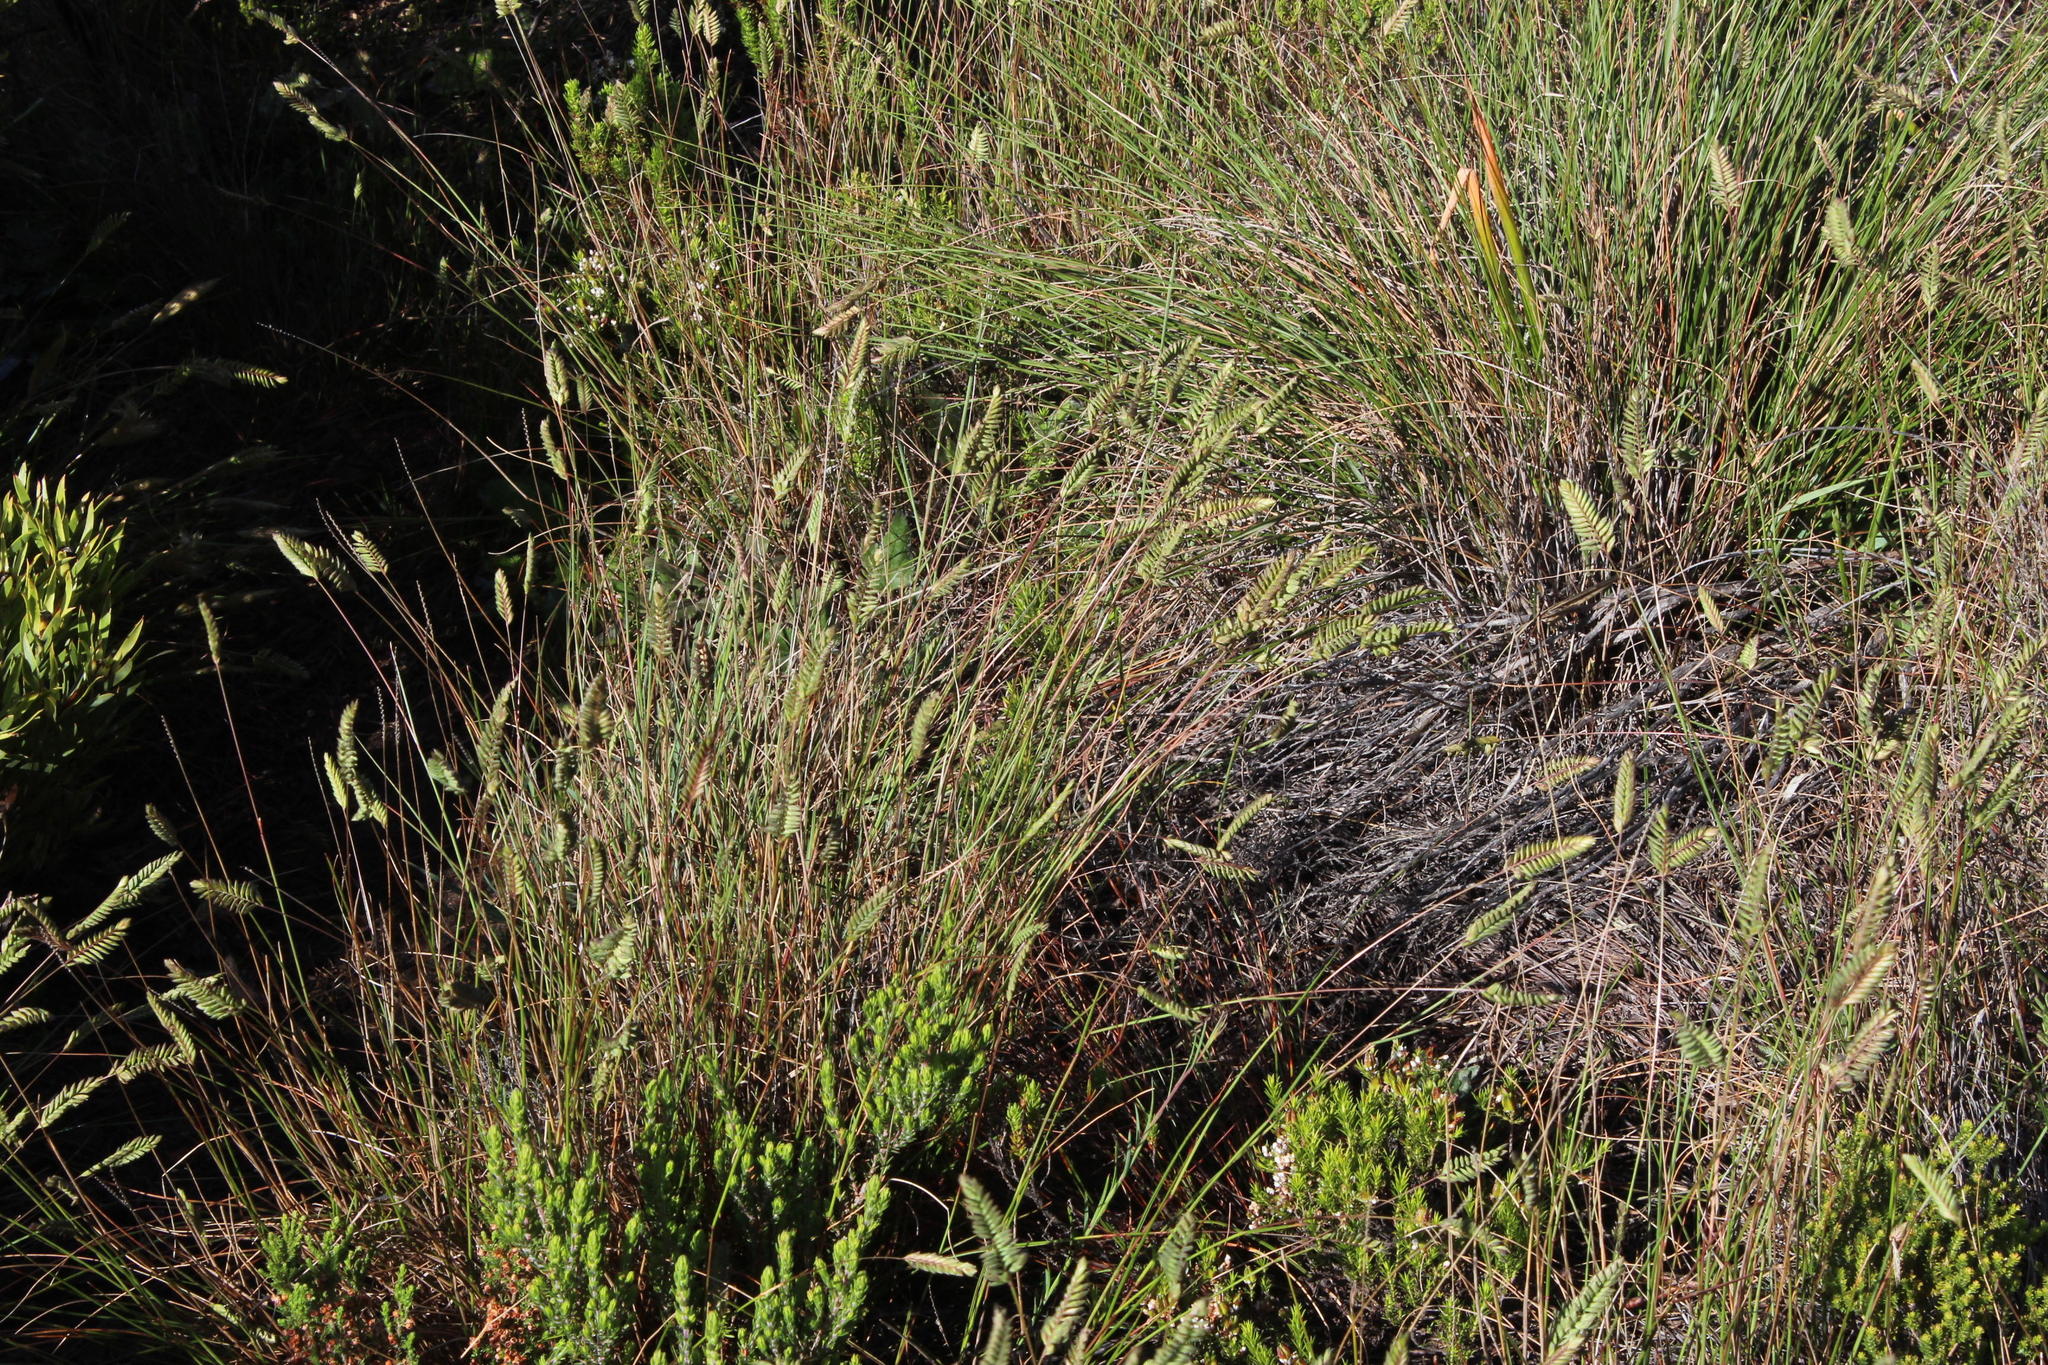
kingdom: Plantae
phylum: Tracheophyta
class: Liliopsida
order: Poales
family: Poaceae
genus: Tribolium
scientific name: Tribolium uniolae
